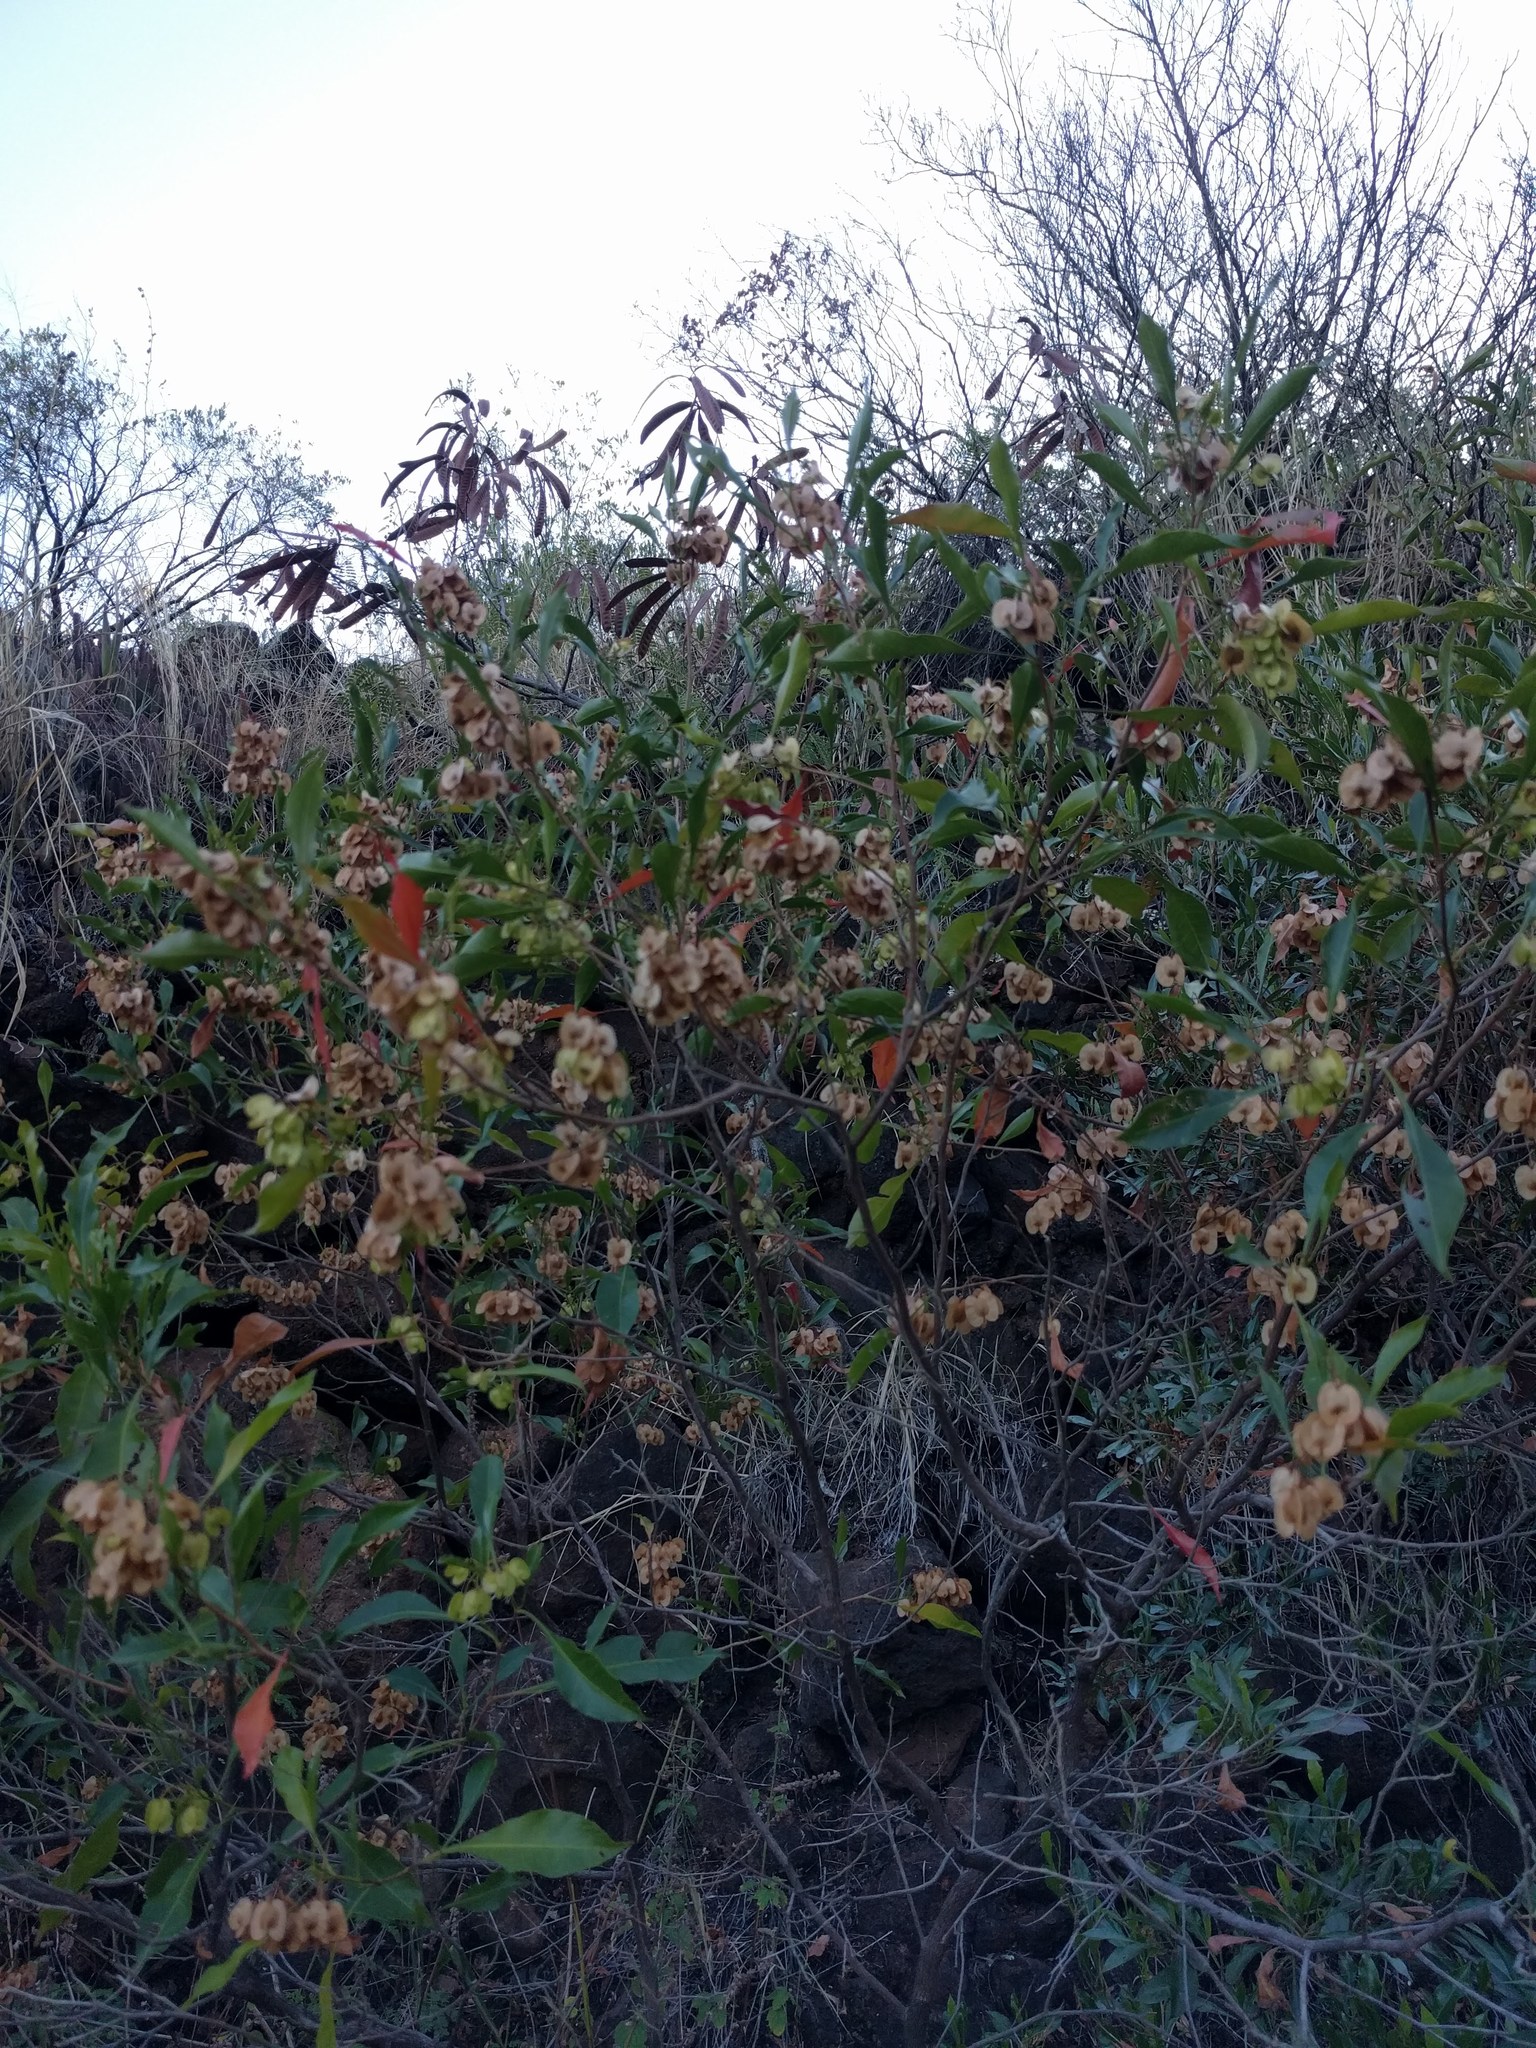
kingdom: Plantae
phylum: Tracheophyta
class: Magnoliopsida
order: Sapindales
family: Sapindaceae
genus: Dodonaea
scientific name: Dodonaea viscosa
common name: Hopbush
